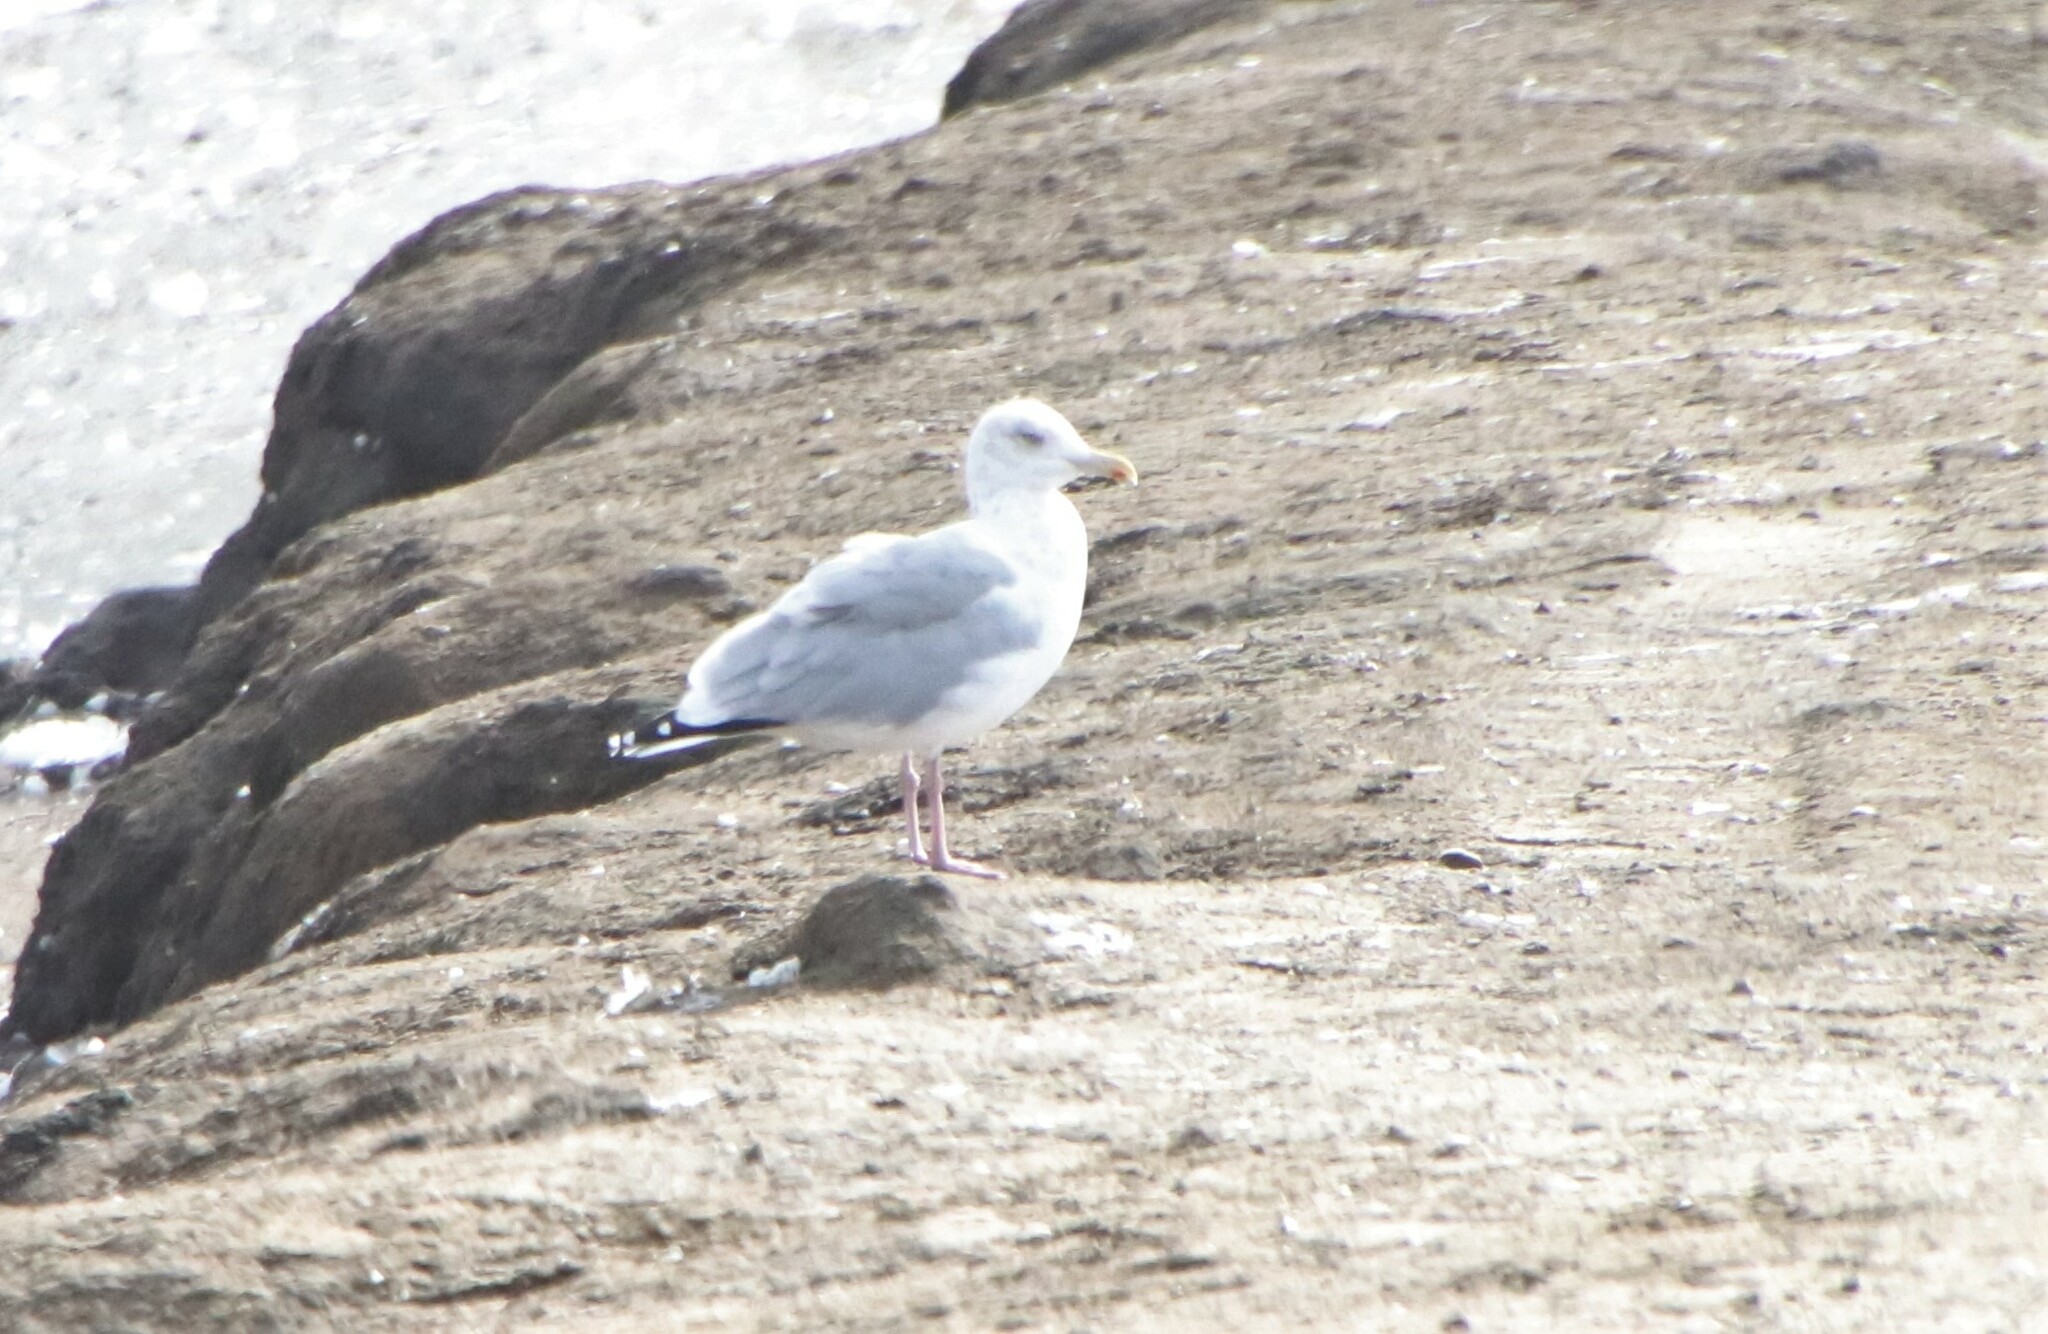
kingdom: Animalia
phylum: Chordata
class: Aves
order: Charadriiformes
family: Laridae
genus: Larus
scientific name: Larus argentatus
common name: Herring gull
